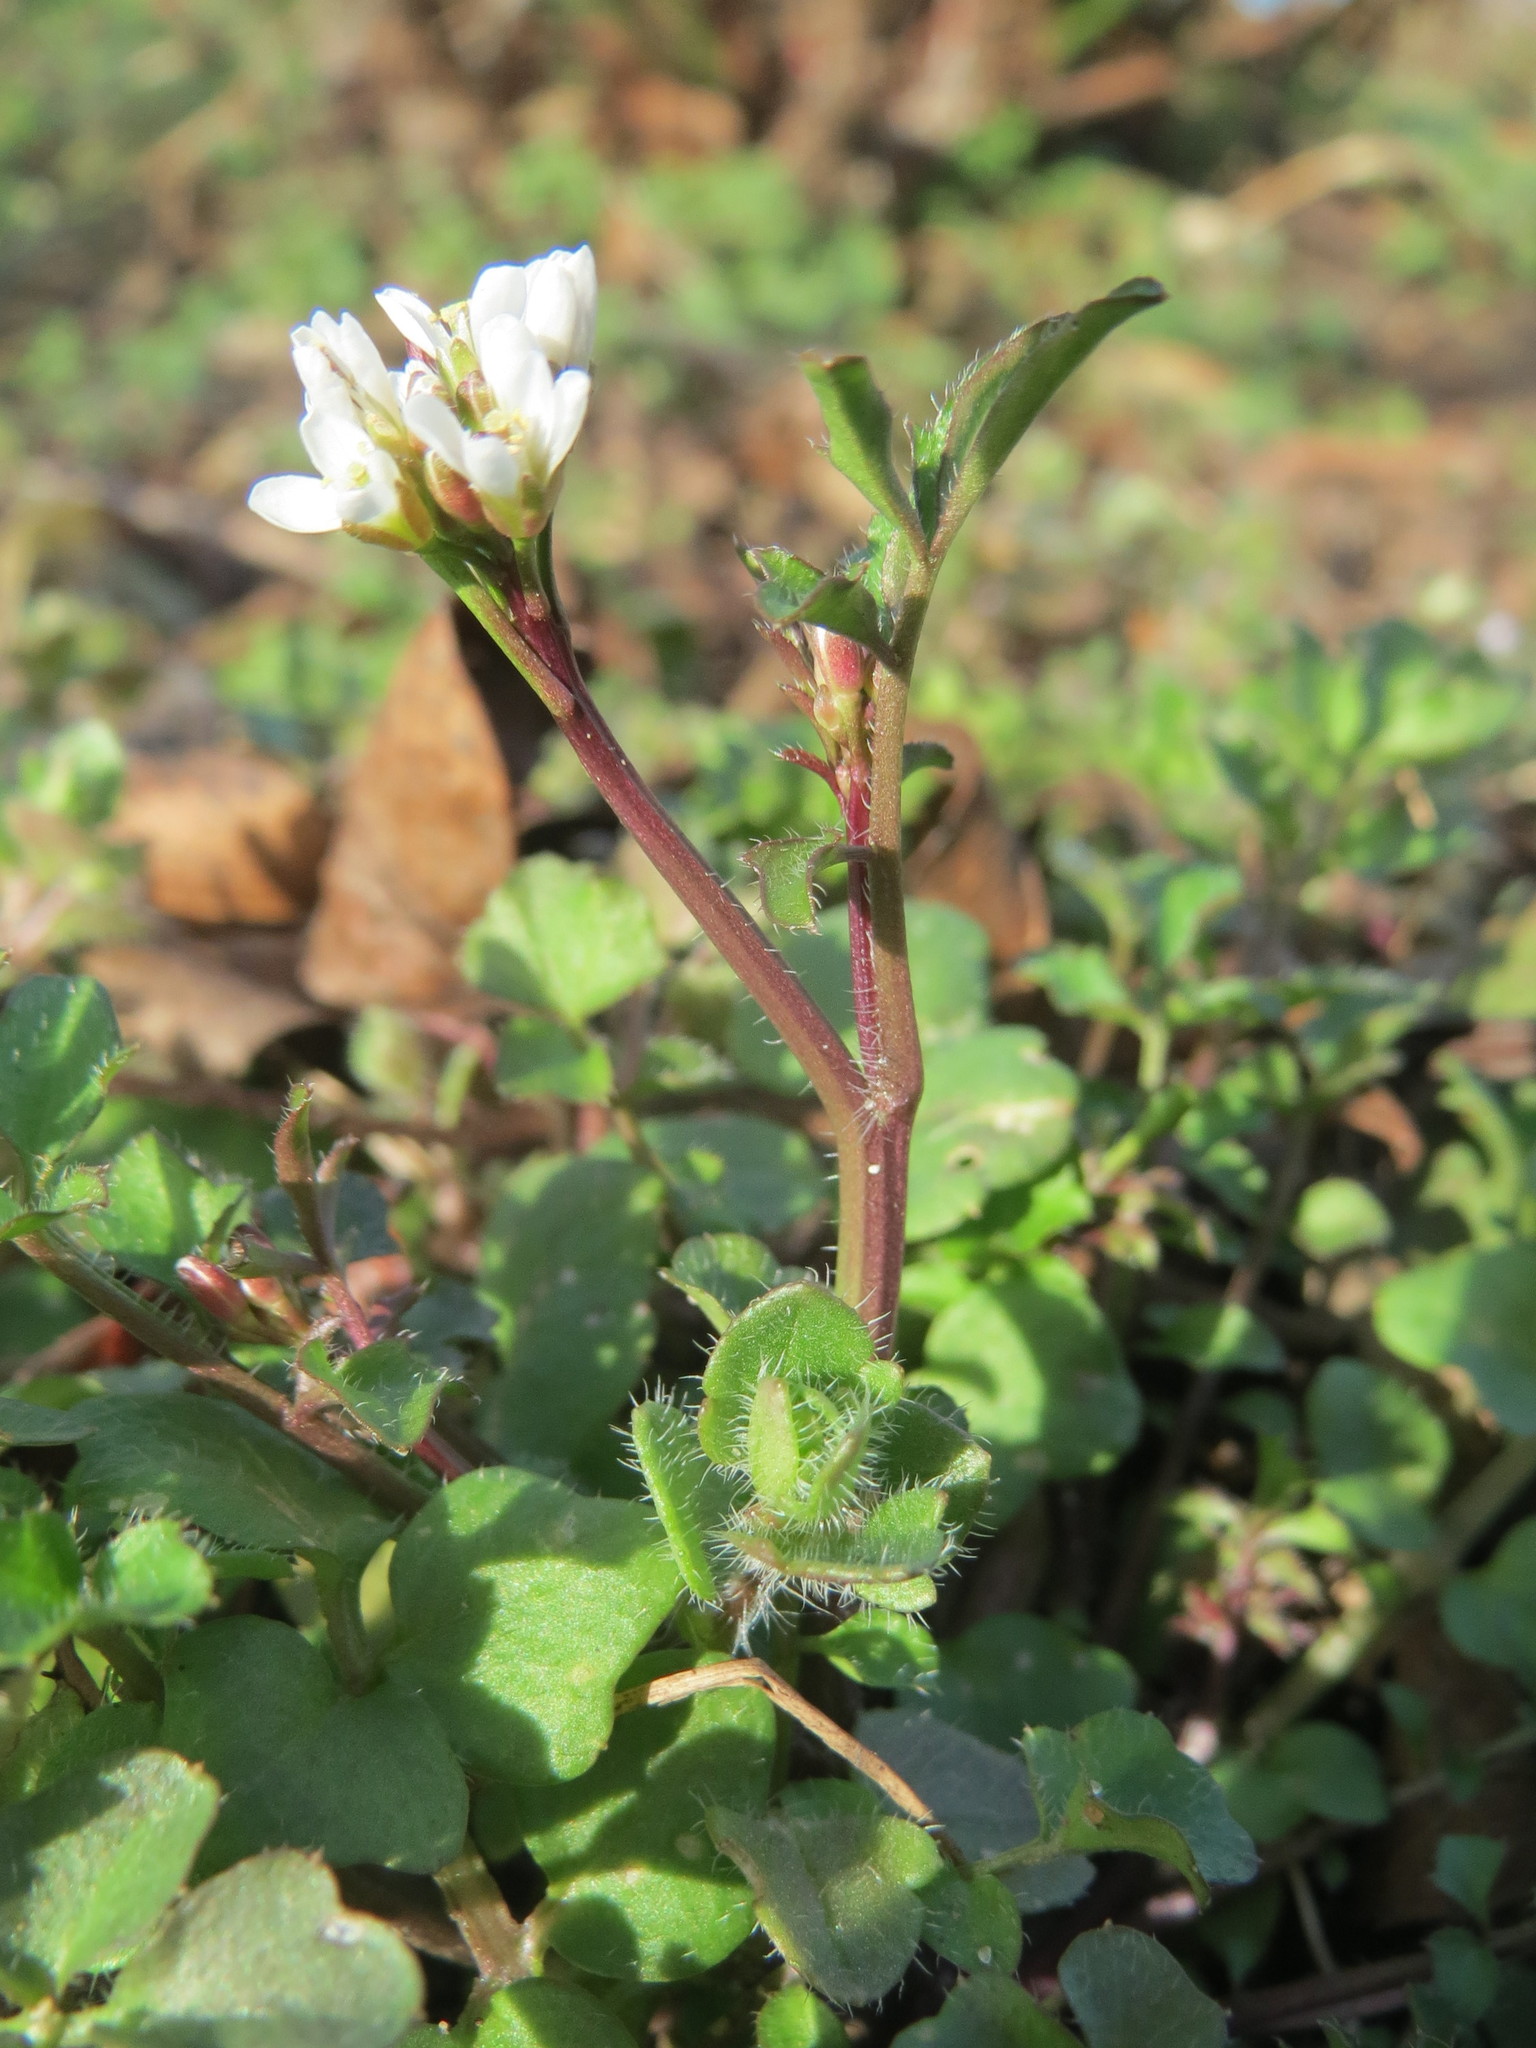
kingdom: Plantae
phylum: Tracheophyta
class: Magnoliopsida
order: Brassicales
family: Brassicaceae
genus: Cardamine
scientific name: Cardamine hirsuta
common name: Hairy bittercress
